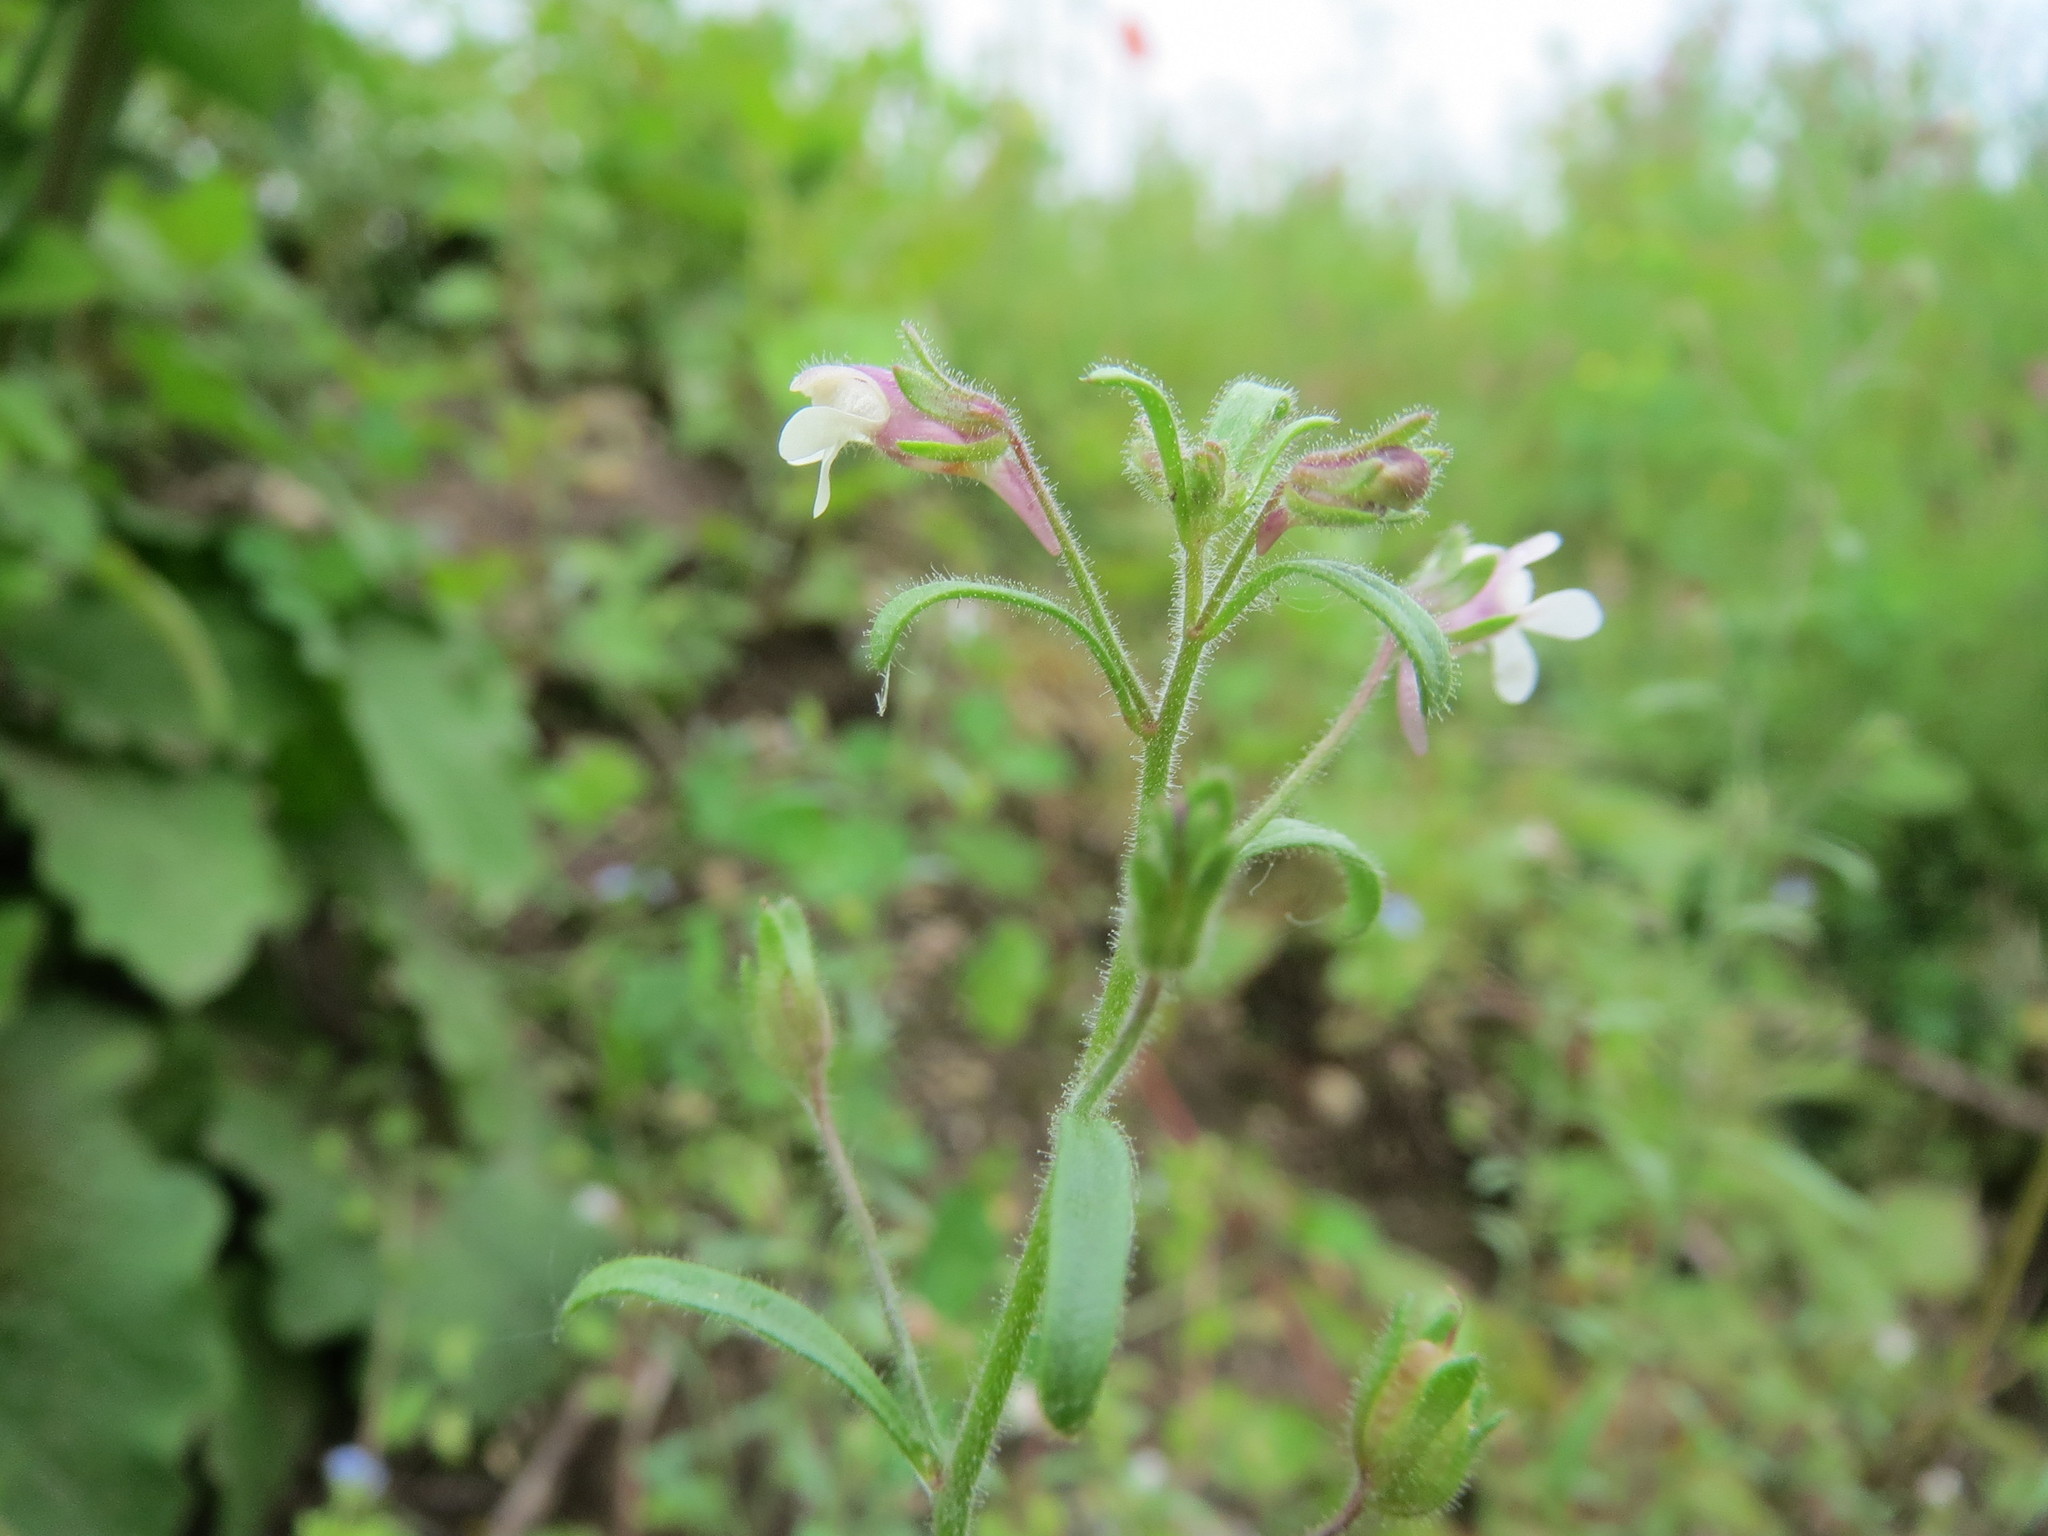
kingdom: Plantae
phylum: Tracheophyta
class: Magnoliopsida
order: Lamiales
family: Plantaginaceae
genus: Chaenorhinum
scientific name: Chaenorhinum minus
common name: Dwarf snapdragon
